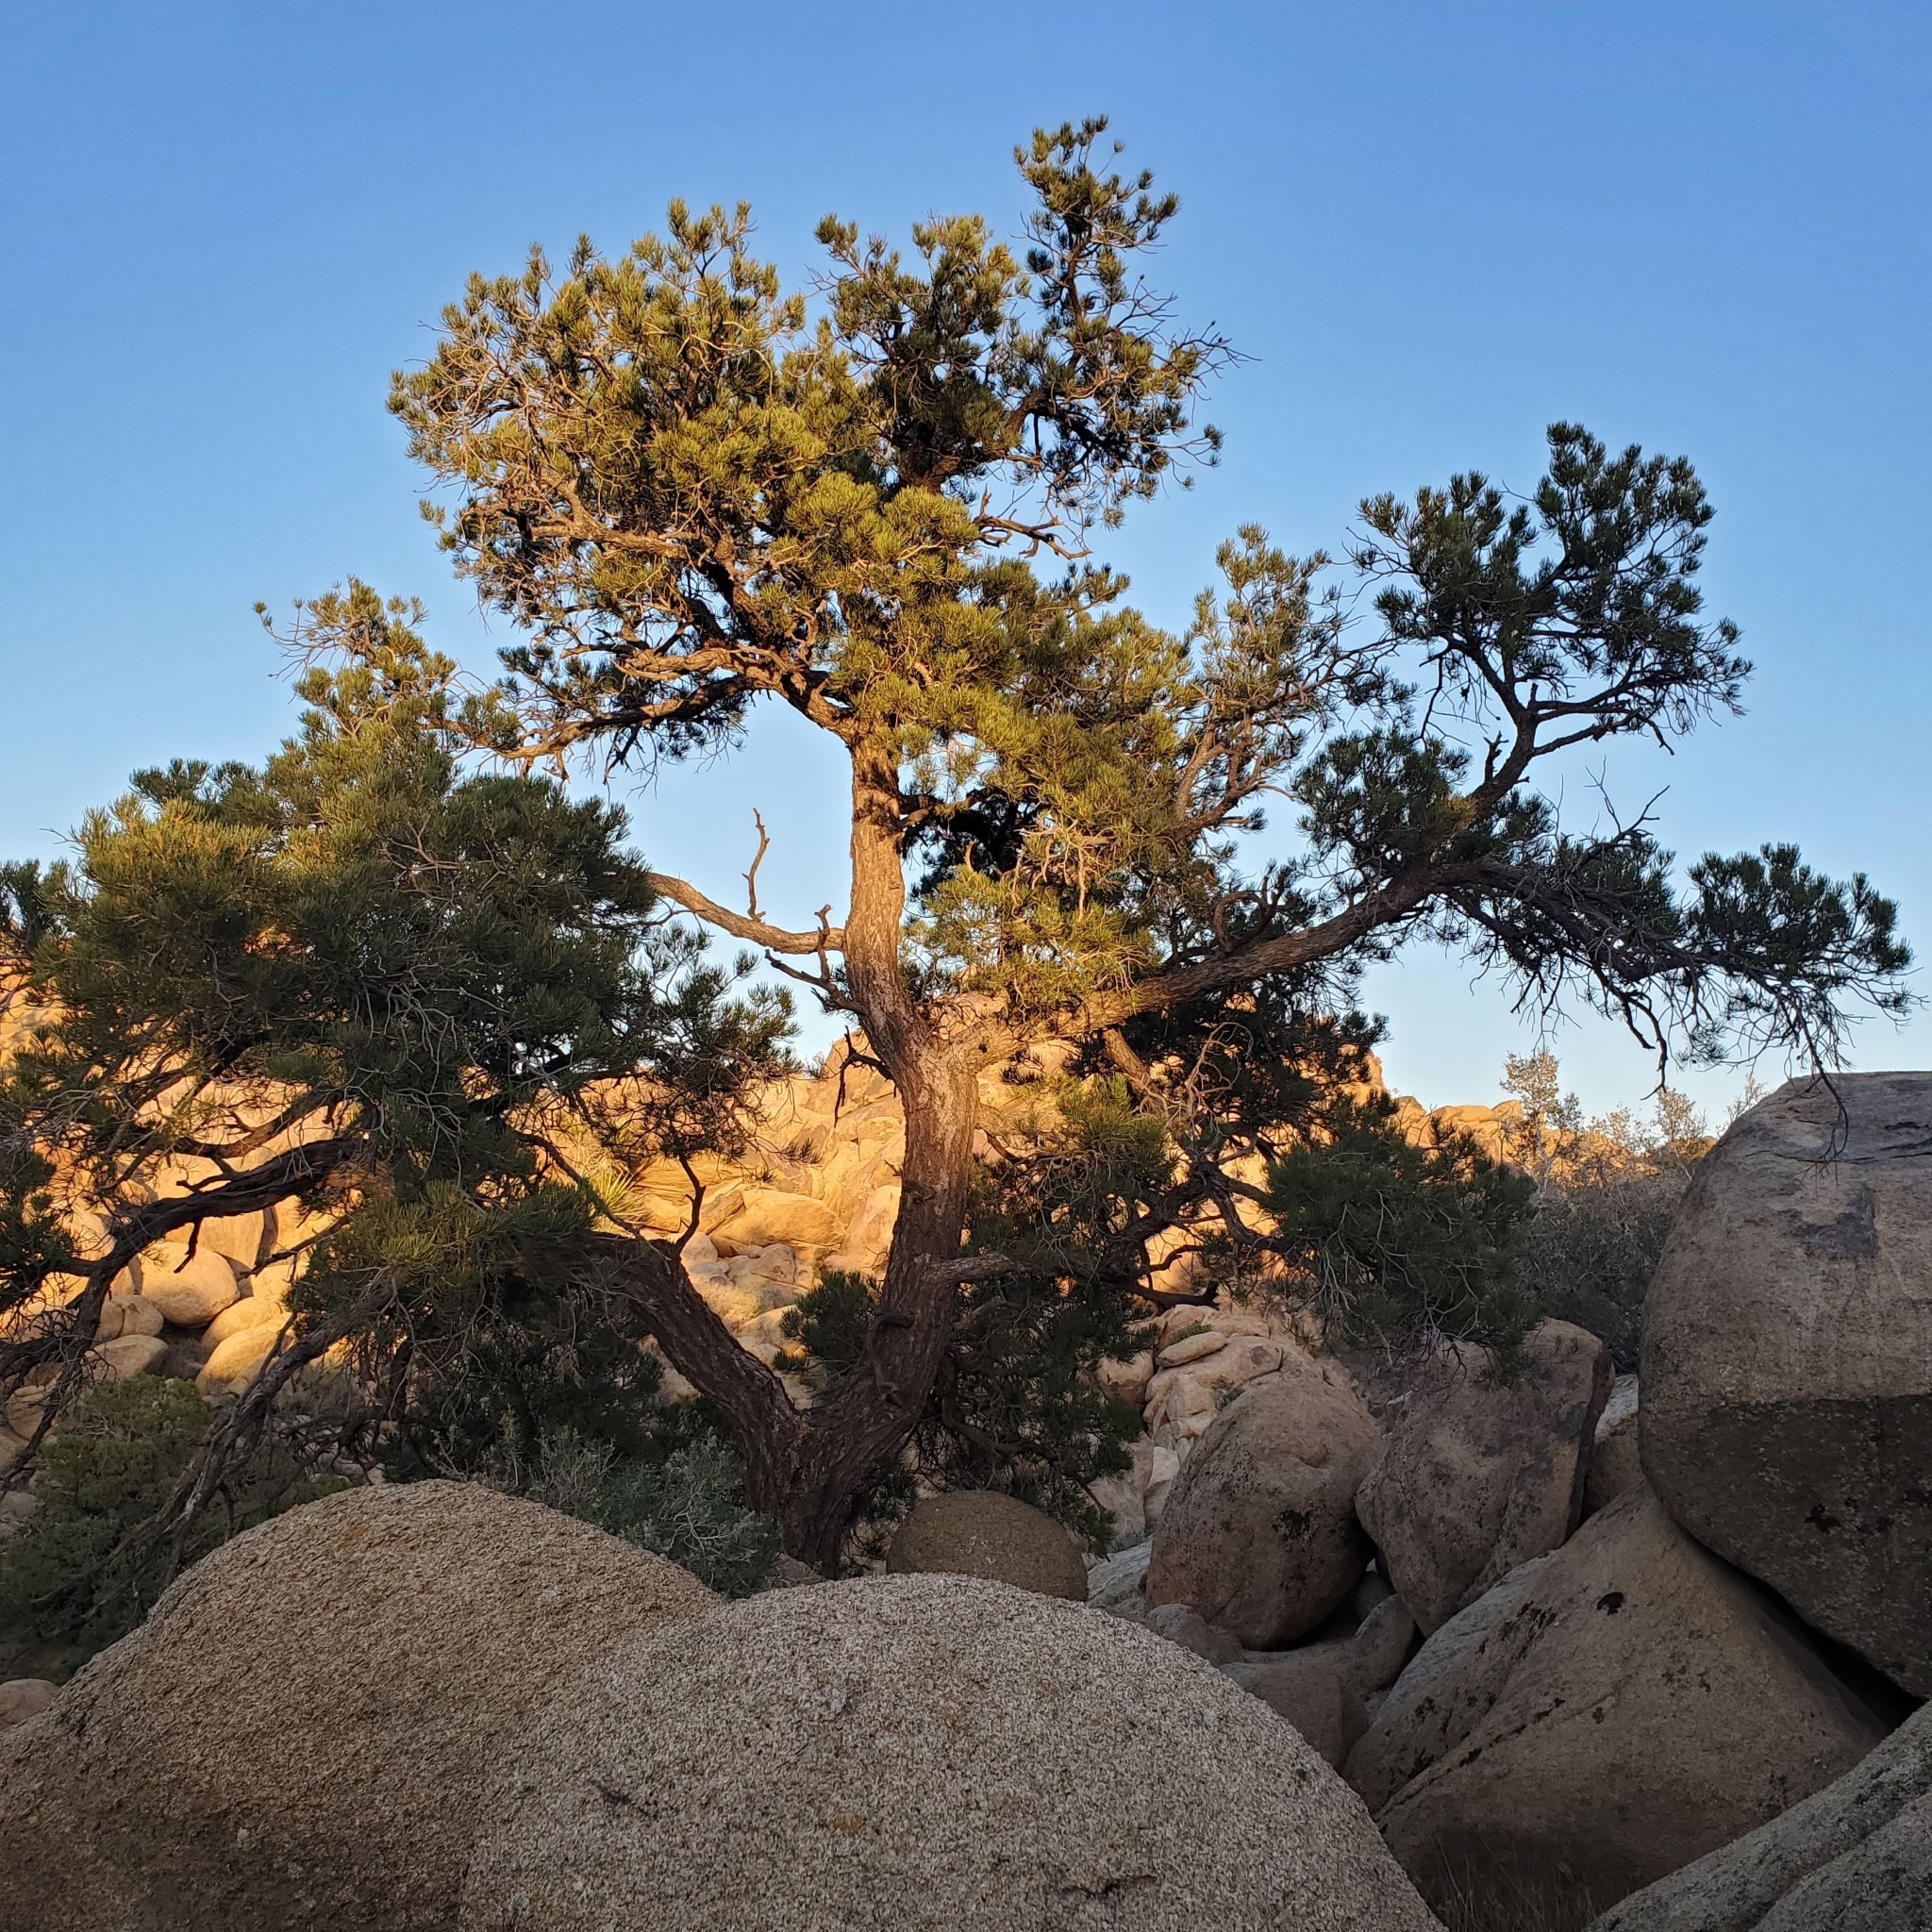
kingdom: Plantae
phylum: Tracheophyta
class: Pinopsida
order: Pinales
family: Pinaceae
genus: Pinus
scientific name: Pinus monophylla
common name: One-leaved nut pine
